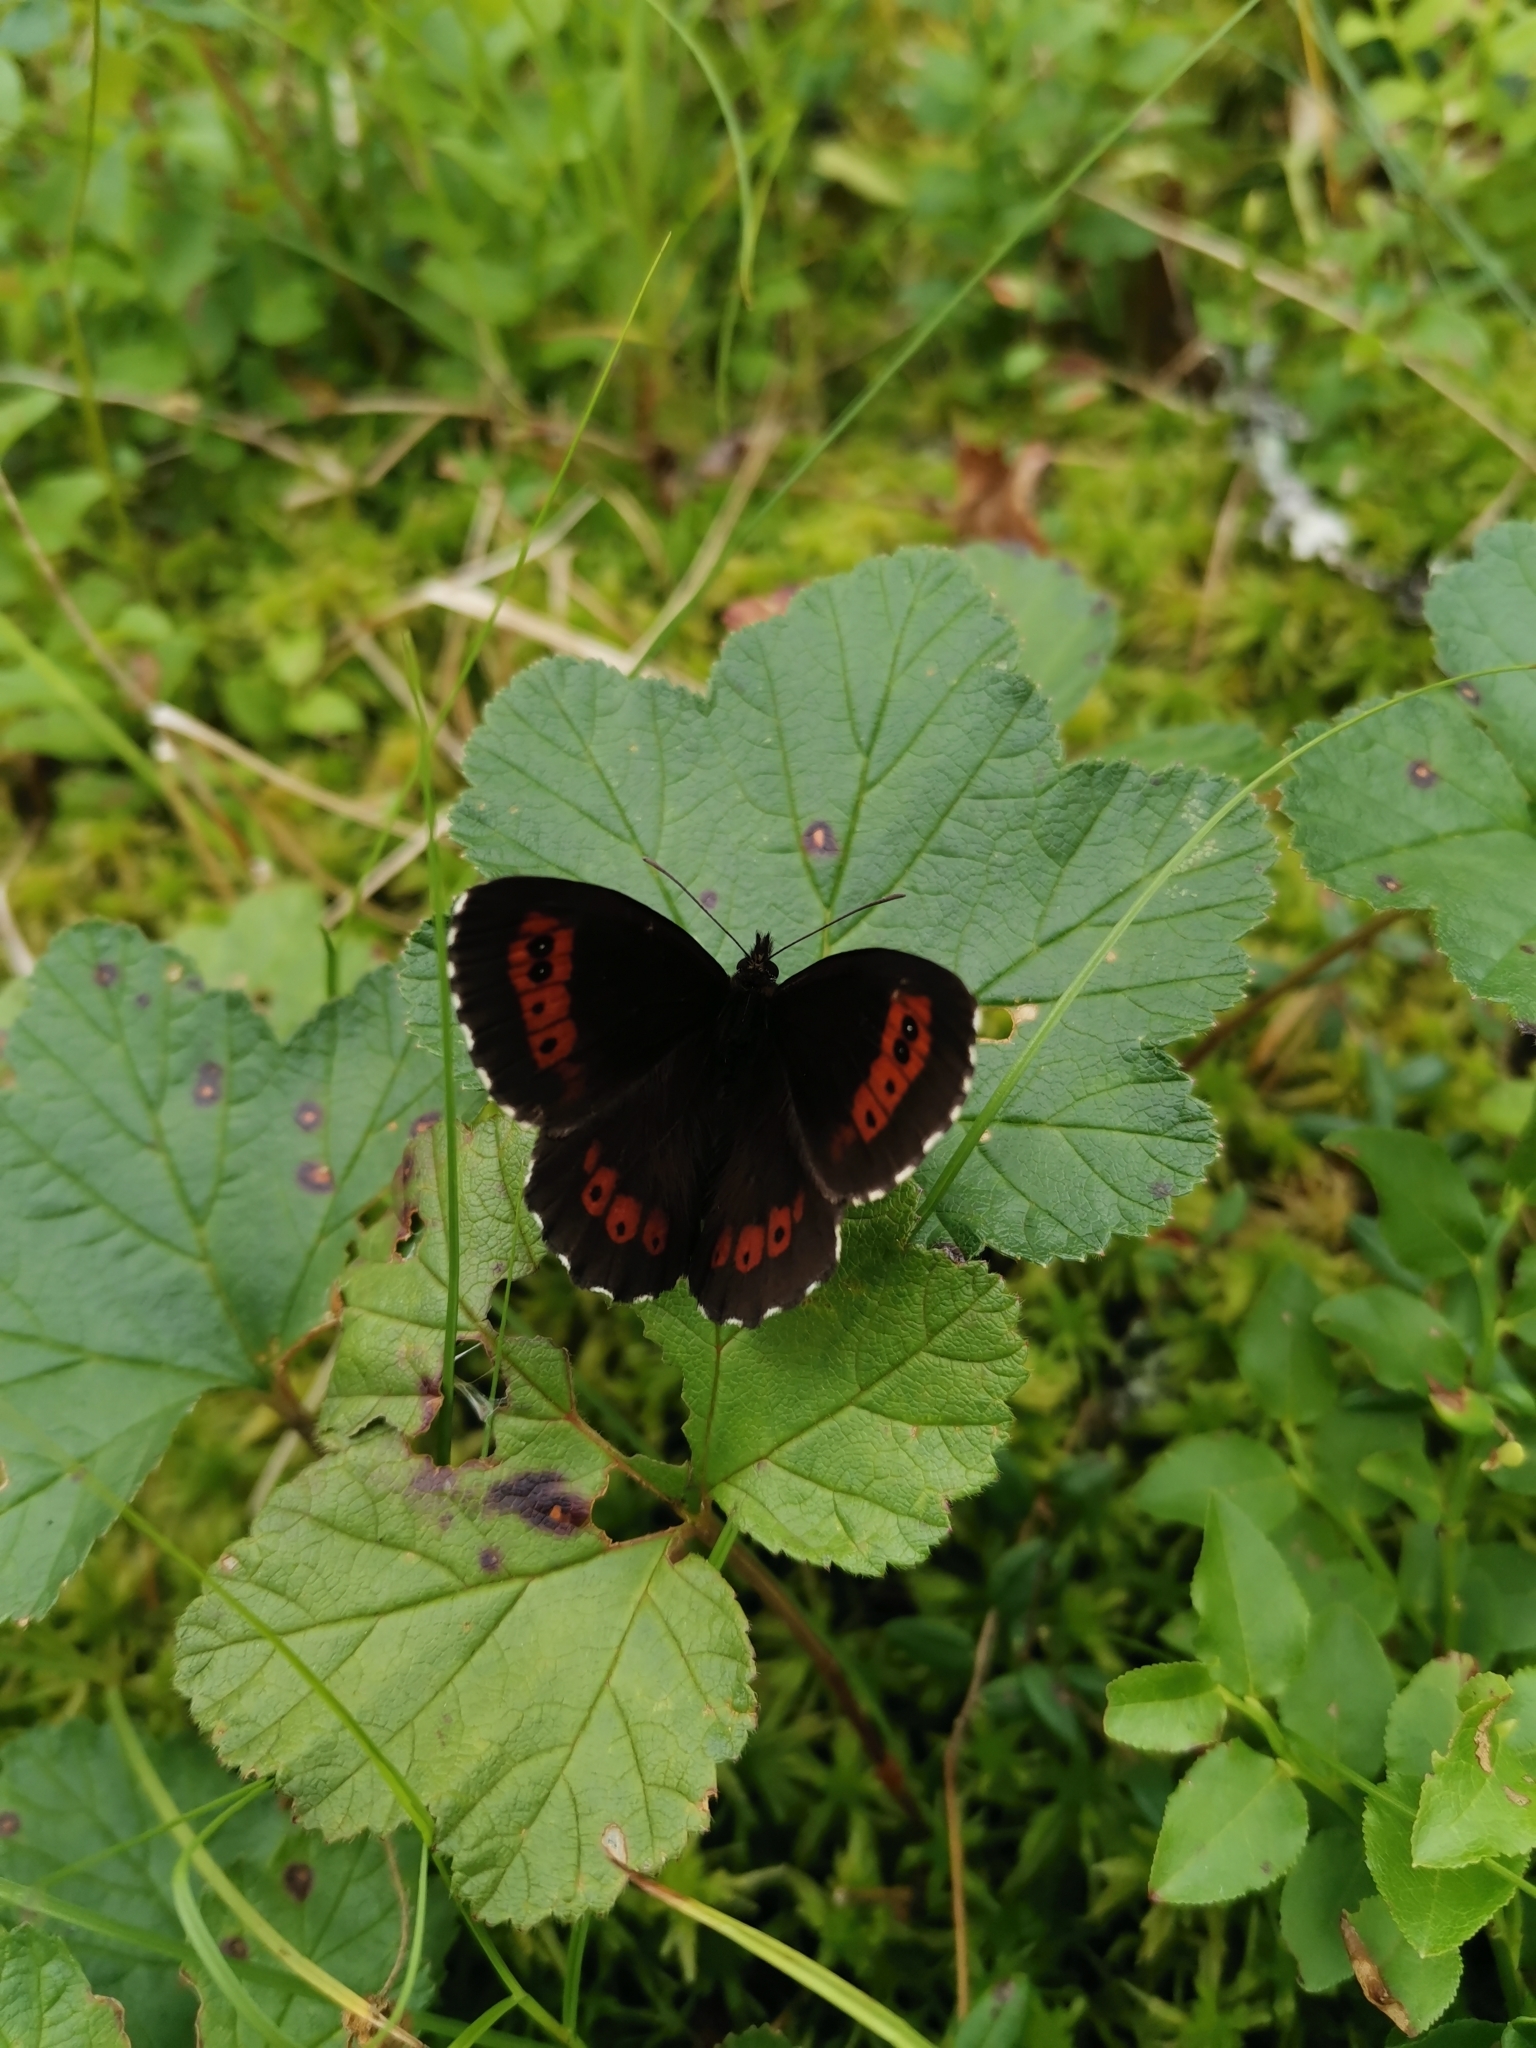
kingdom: Animalia
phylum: Arthropoda
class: Insecta
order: Lepidoptera
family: Nymphalidae
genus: Erebia
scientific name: Erebia ligea
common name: Arran brown
